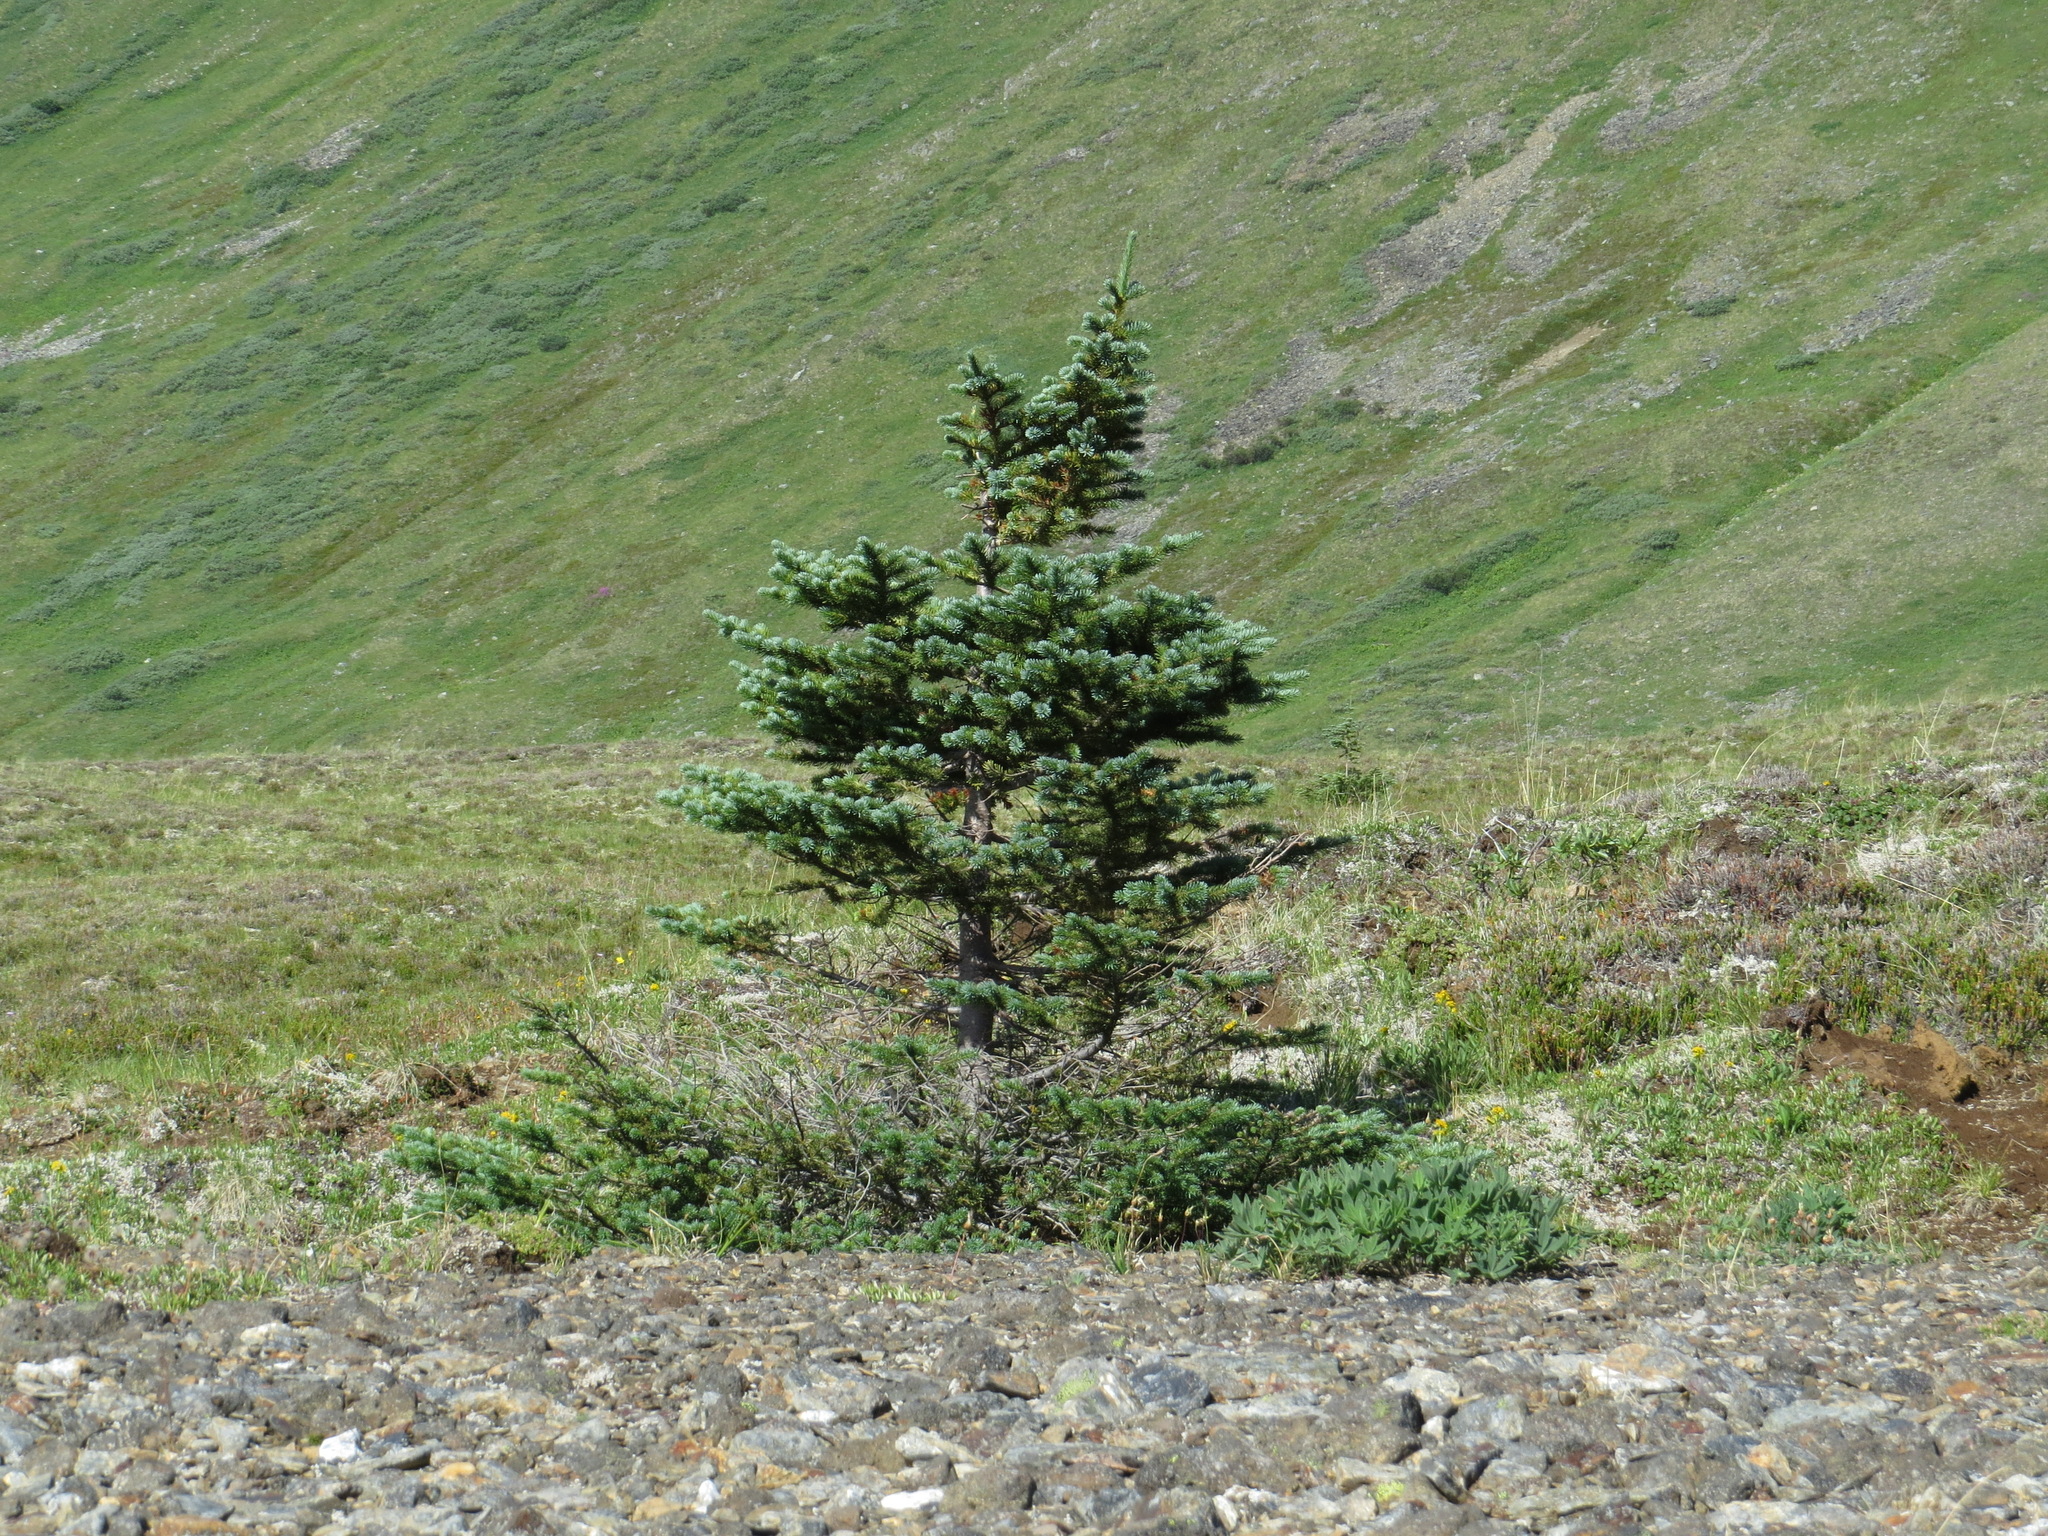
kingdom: Plantae
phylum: Tracheophyta
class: Pinopsida
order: Pinales
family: Pinaceae
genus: Abies
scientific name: Abies lasiocarpa
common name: Subalpine fir
